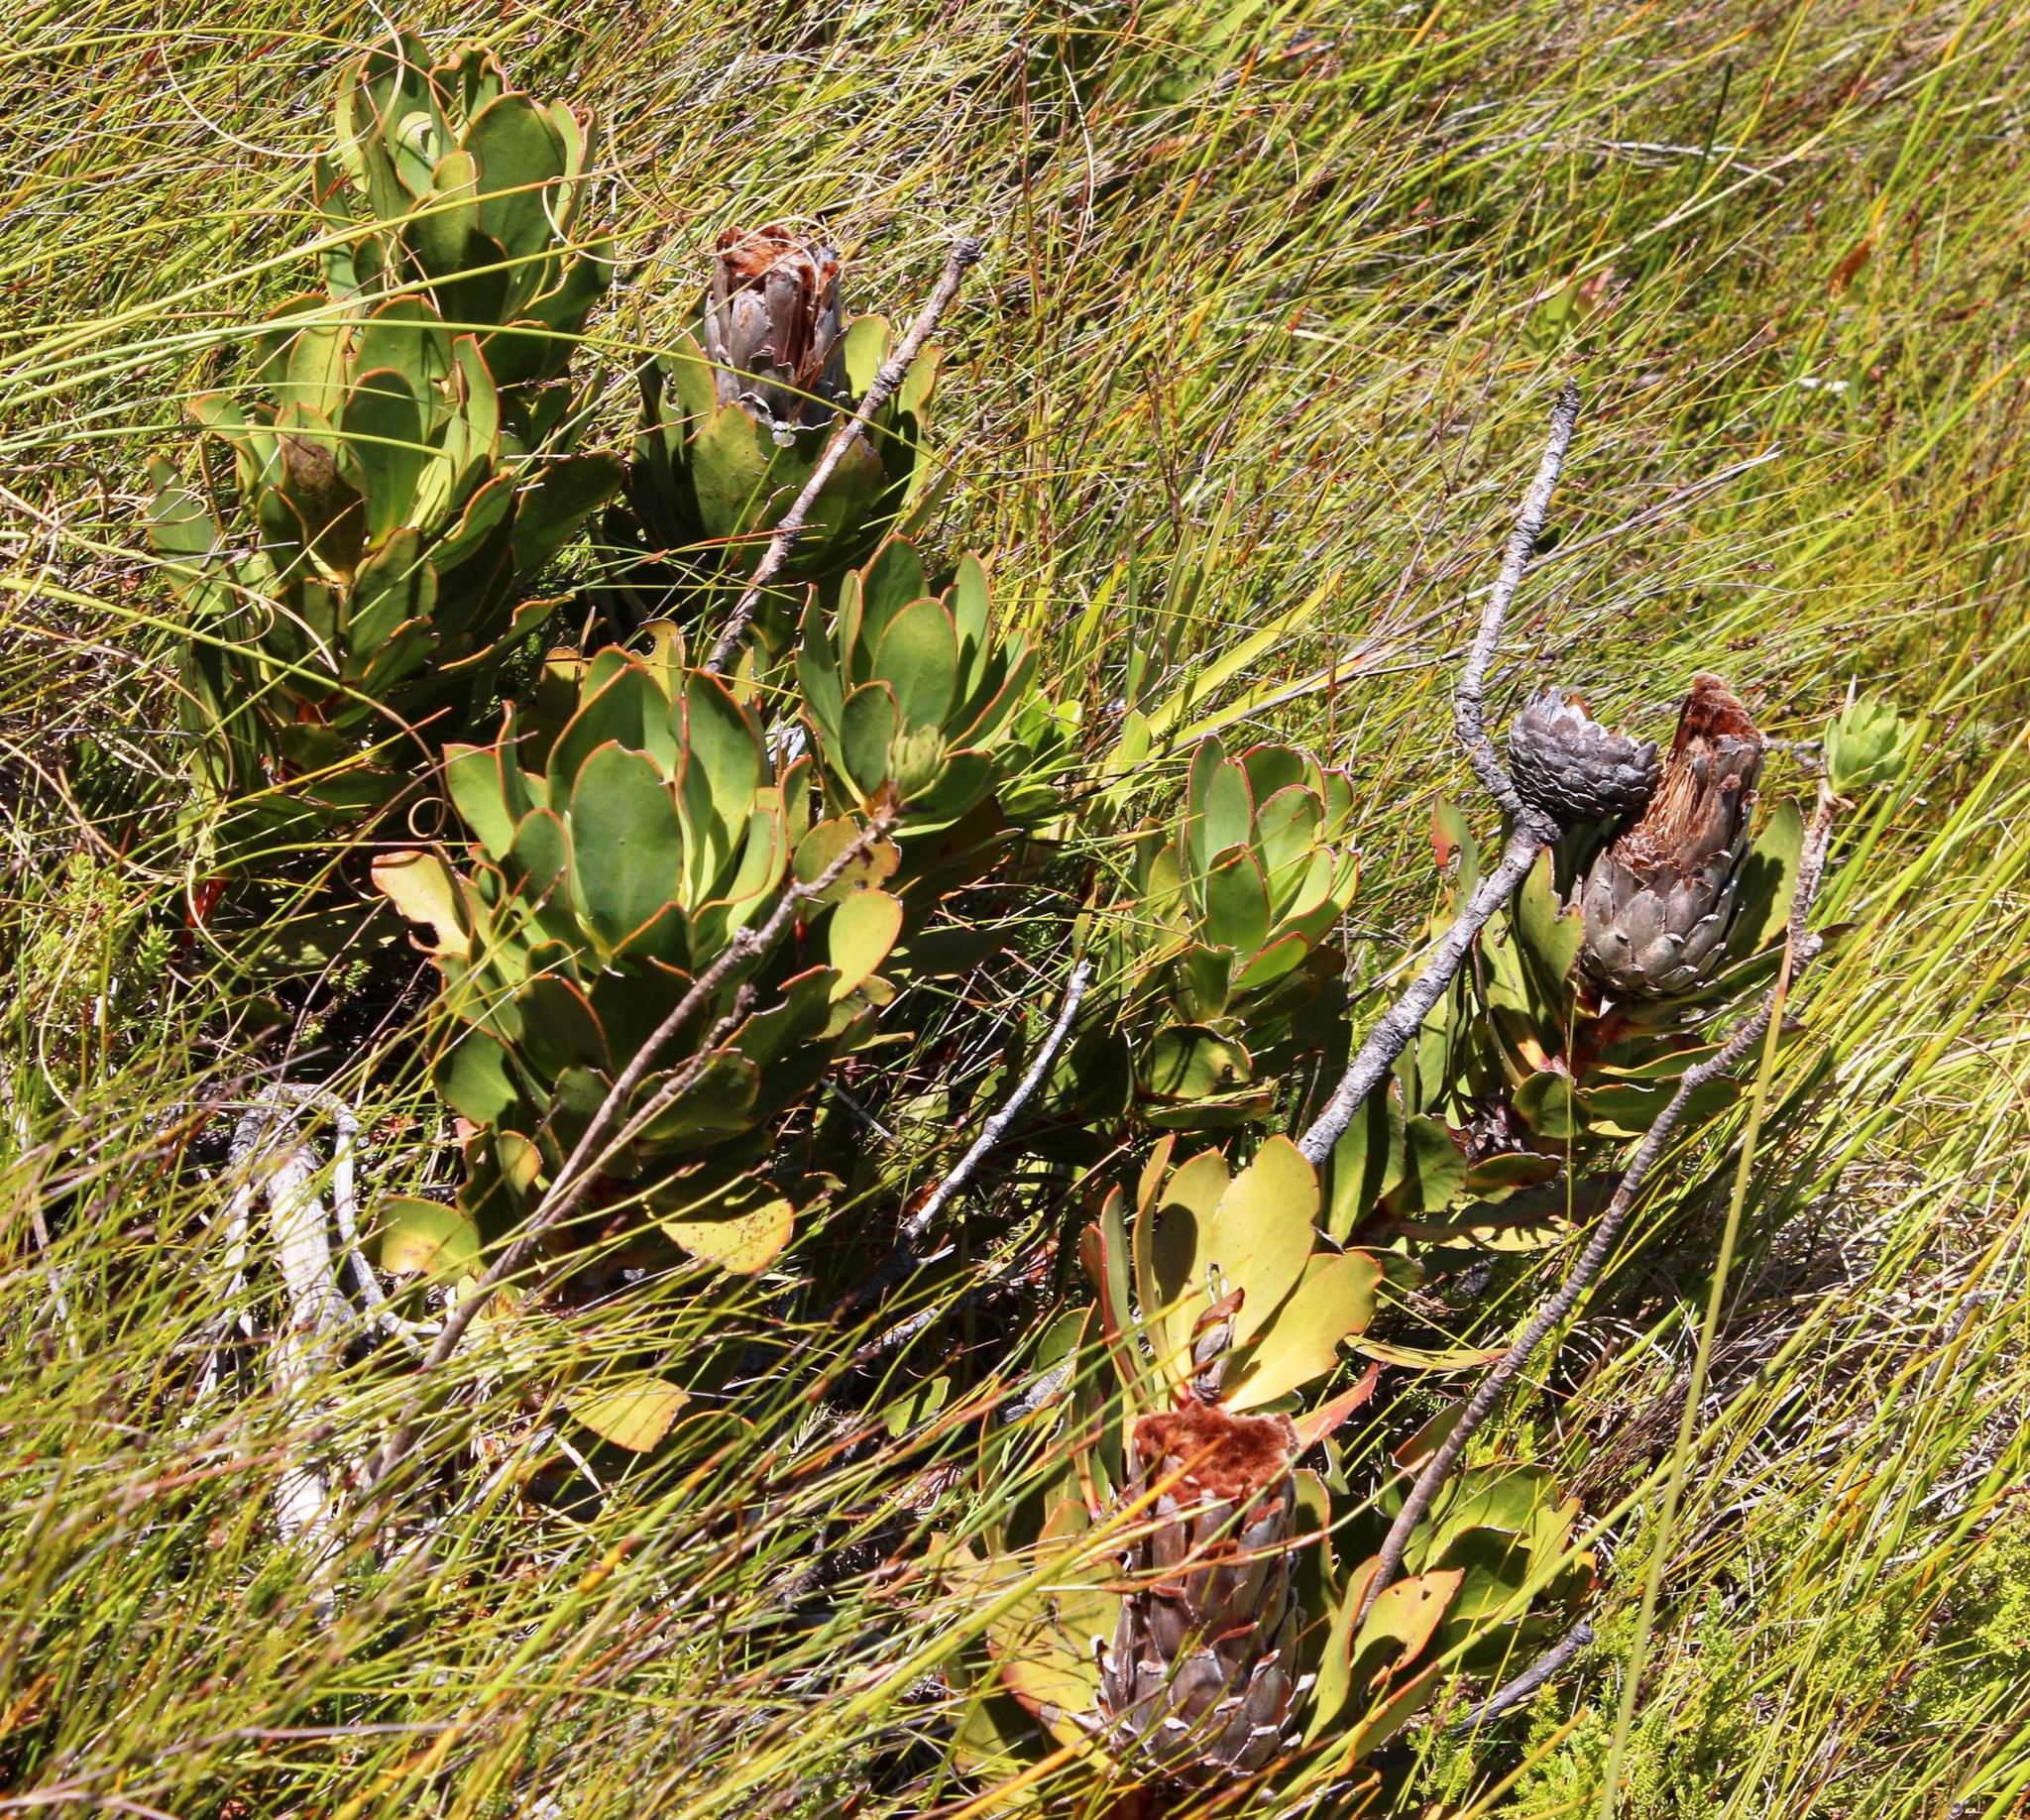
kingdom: Plantae
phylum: Tracheophyta
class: Magnoliopsida
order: Proteales
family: Proteaceae
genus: Protea
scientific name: Protea speciosa
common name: Brown-beard sugarbush
